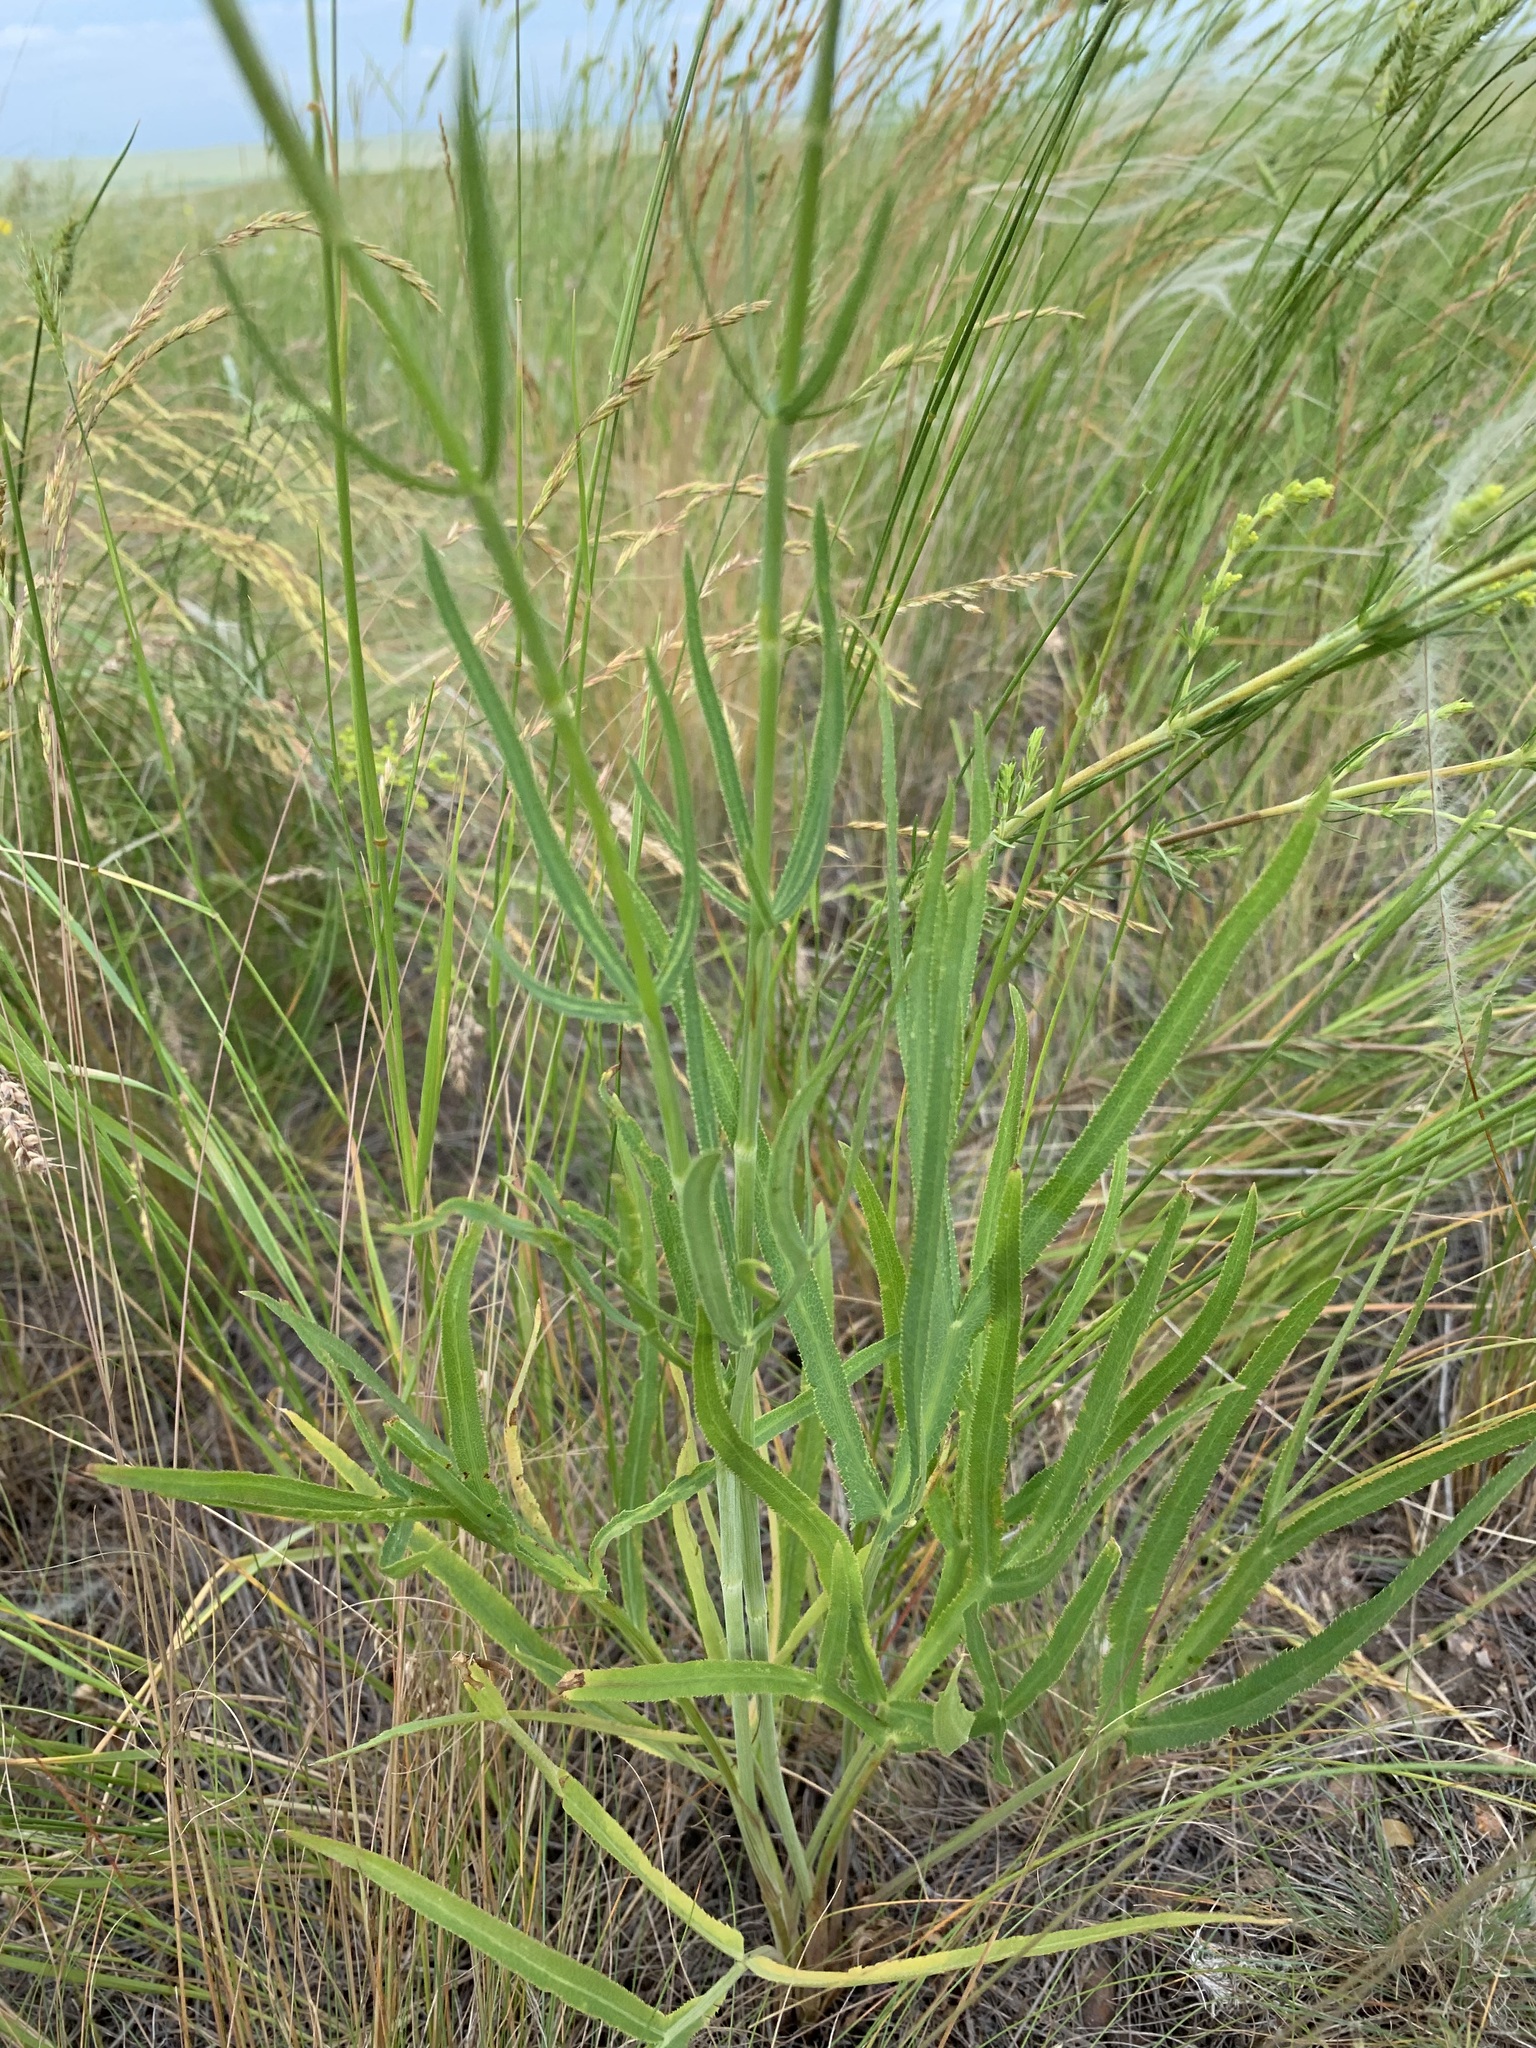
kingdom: Plantae
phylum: Tracheophyta
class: Magnoliopsida
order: Apiales
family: Apiaceae
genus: Falcaria
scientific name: Falcaria vulgaris
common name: Longleaf
